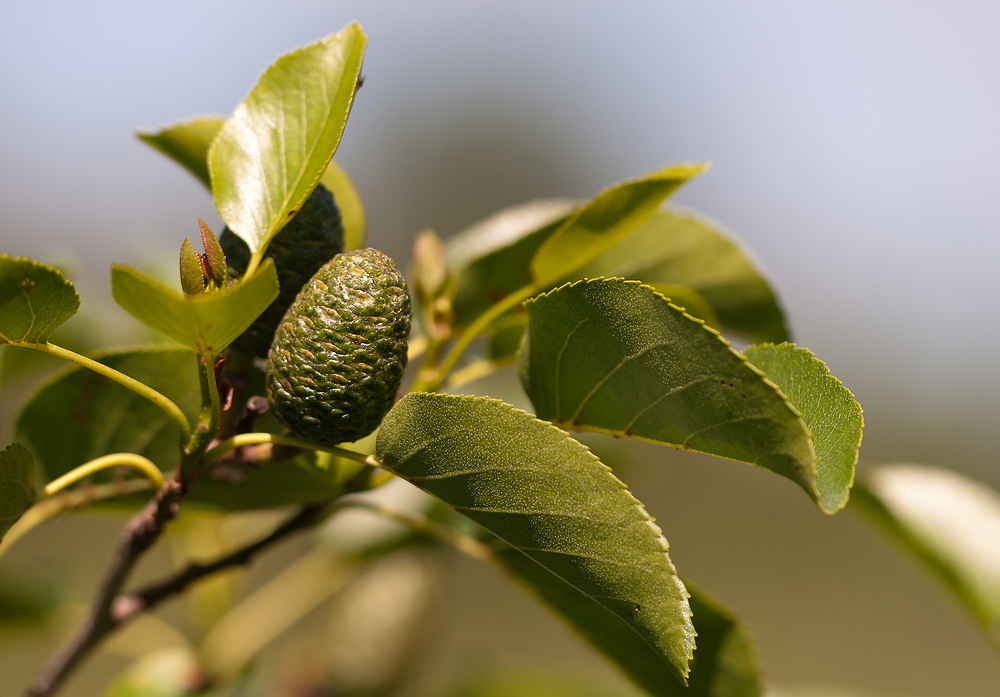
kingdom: Plantae
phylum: Tracheophyta
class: Magnoliopsida
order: Fagales
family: Betulaceae
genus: Alnus
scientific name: Alnus cordata
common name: Italian alder
